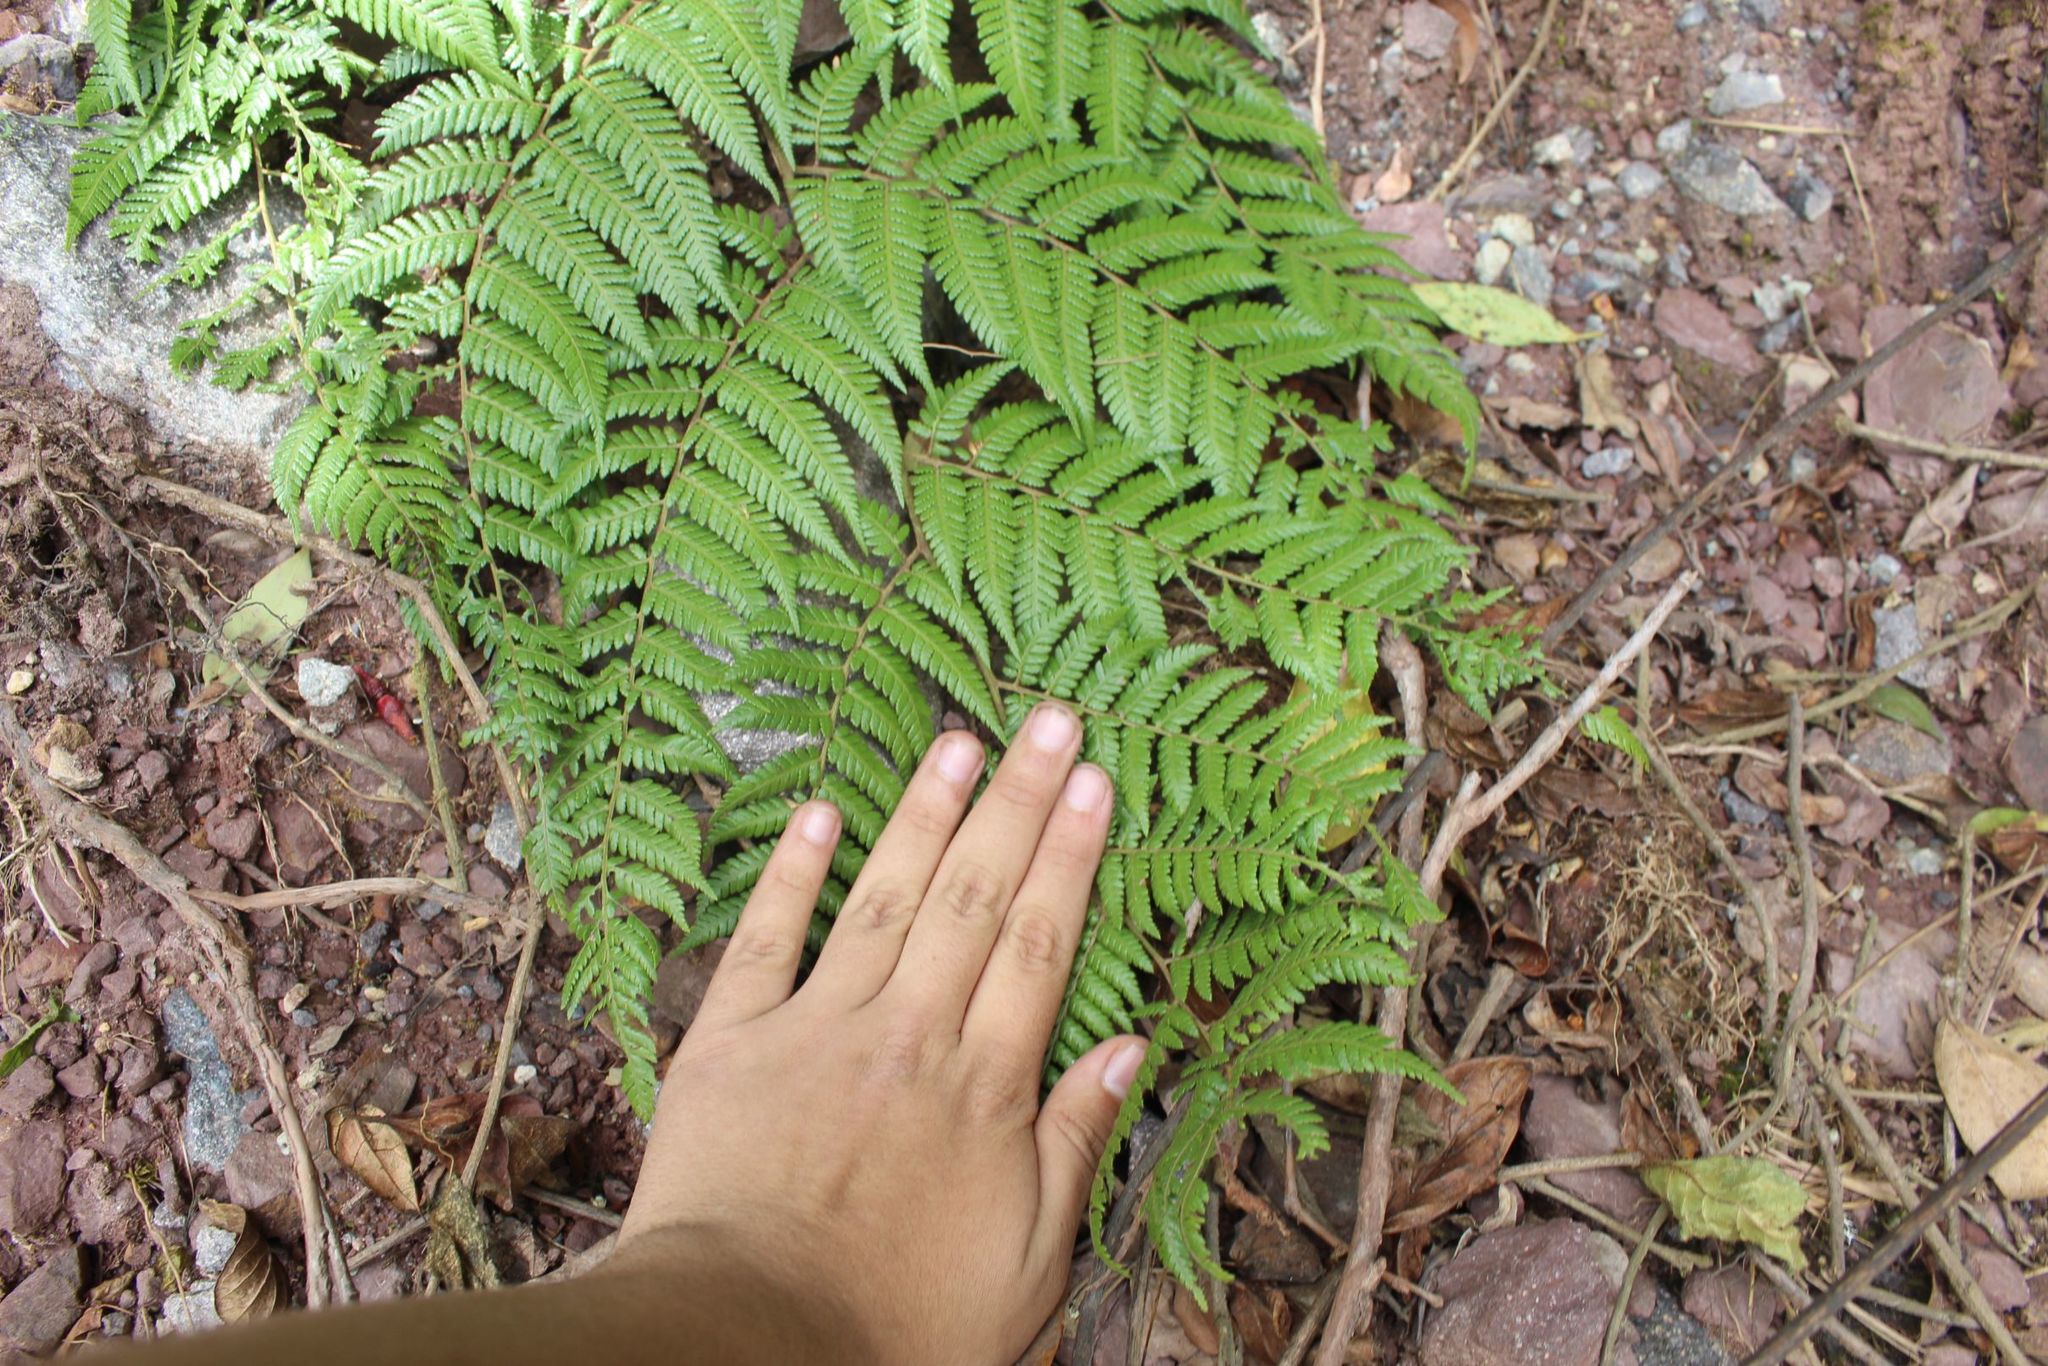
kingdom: Plantae
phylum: Tracheophyta
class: Polypodiopsida
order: Cyatheales
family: Dicksoniaceae
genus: Lophosoria
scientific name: Lophosoria quadripinnata
